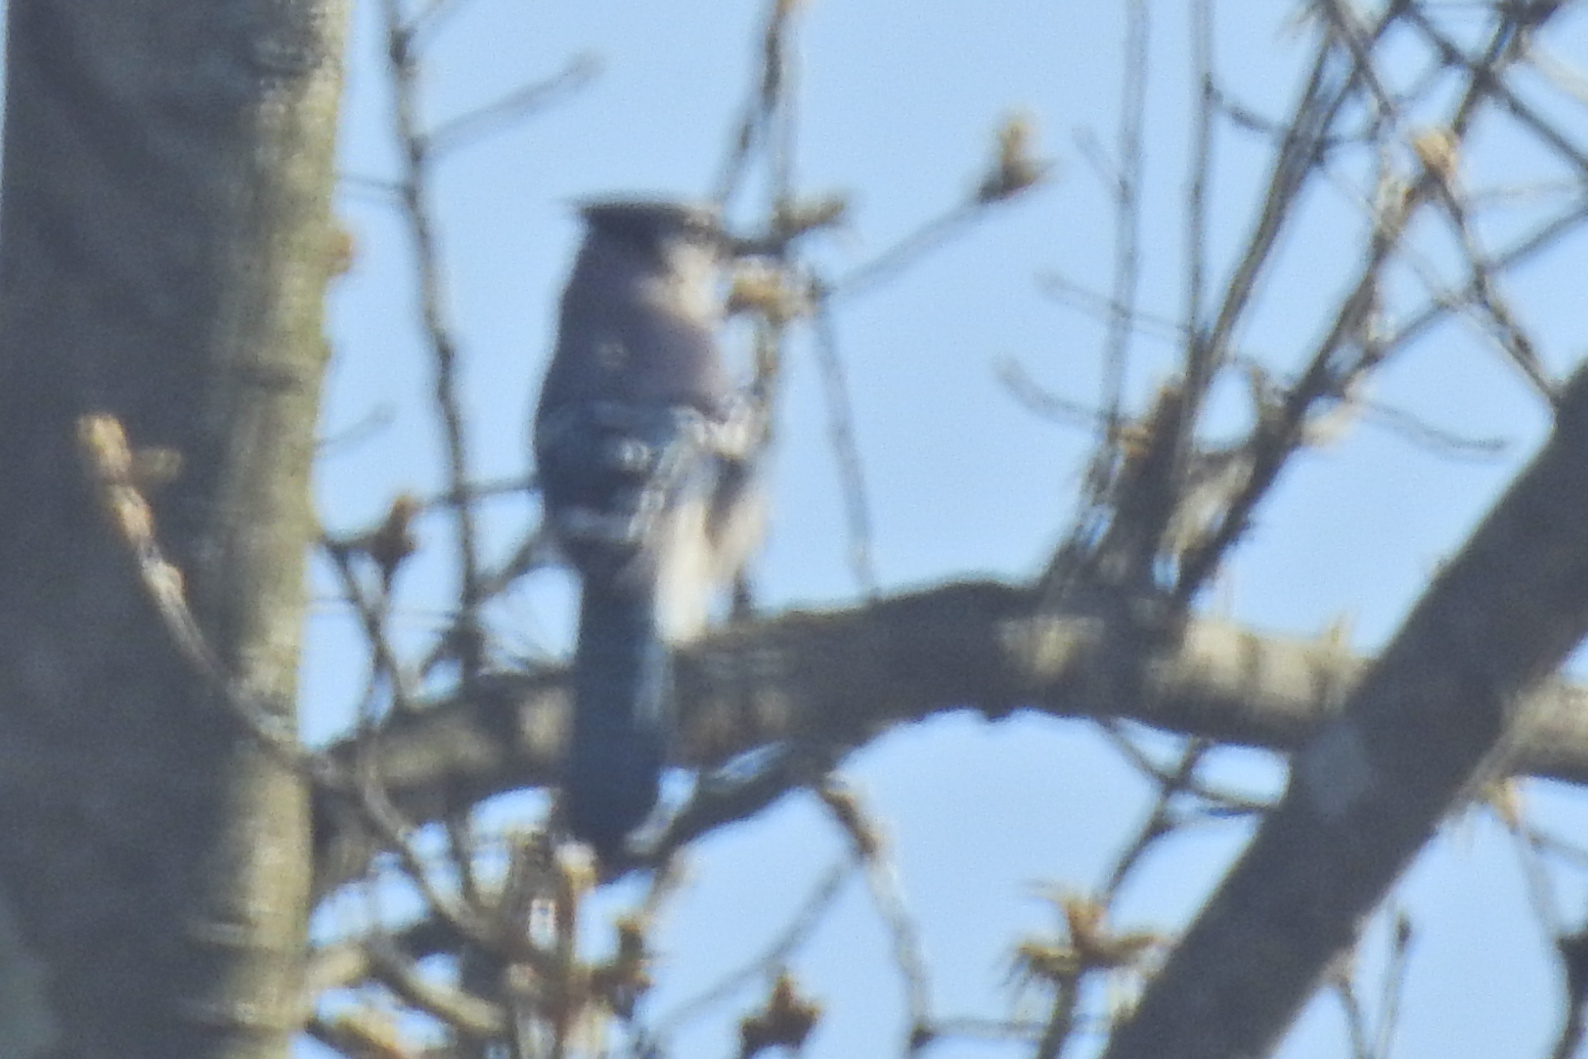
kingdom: Animalia
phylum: Chordata
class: Aves
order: Passeriformes
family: Corvidae
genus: Cyanocitta
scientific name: Cyanocitta cristata
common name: Blue jay
